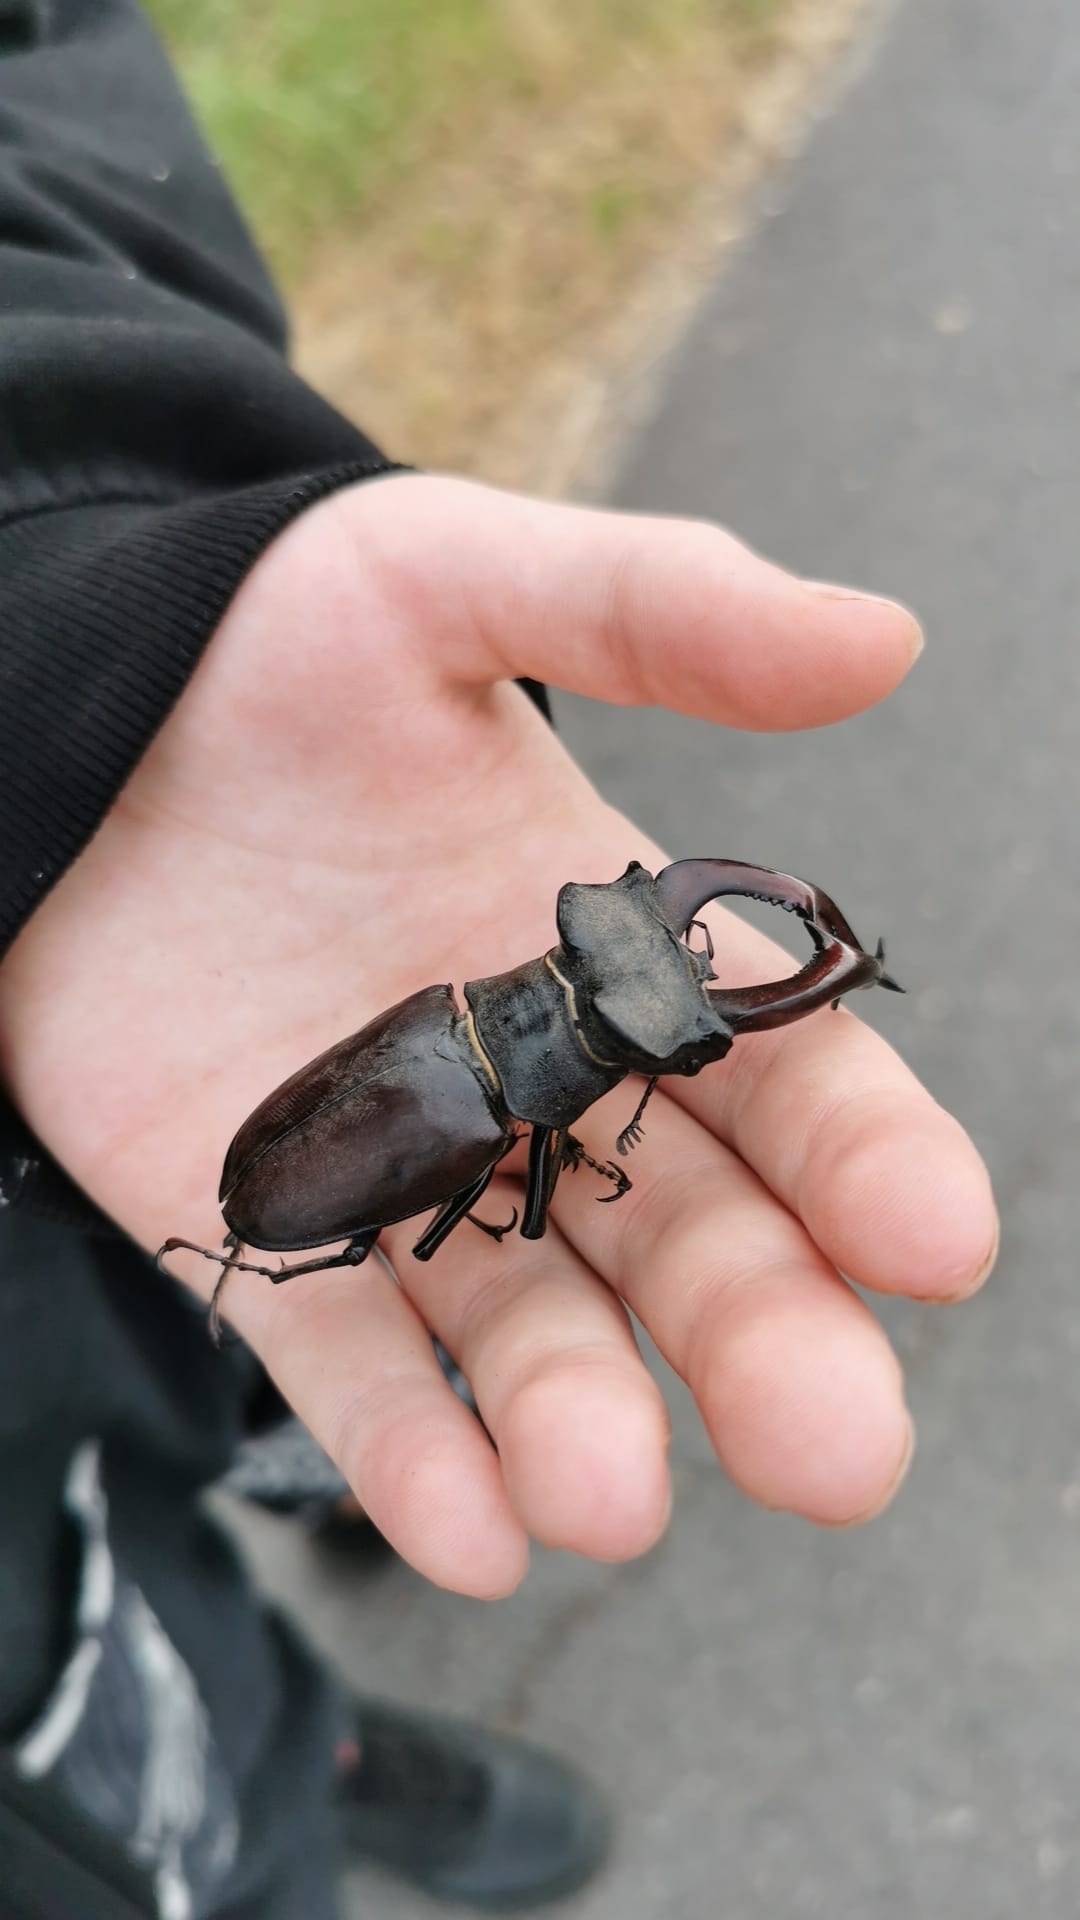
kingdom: Animalia
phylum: Arthropoda
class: Insecta
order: Coleoptera
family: Lucanidae
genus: Lucanus
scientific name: Lucanus cervus
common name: Stag beetle
